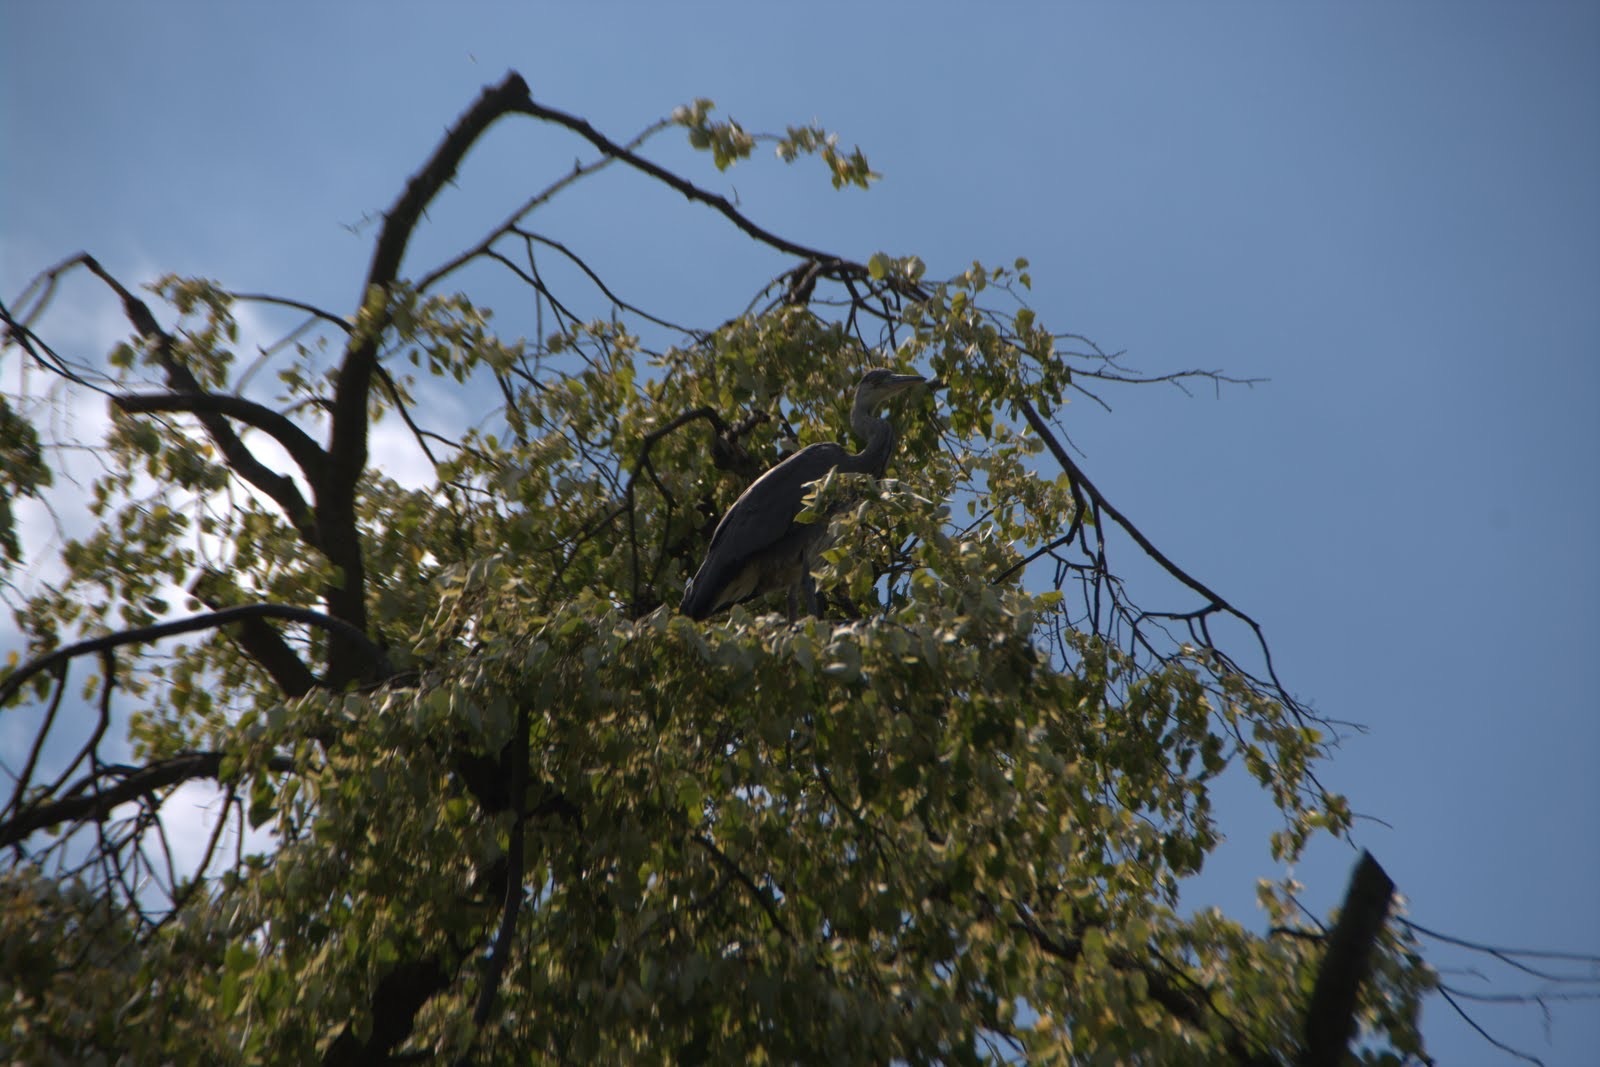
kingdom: Animalia
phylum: Chordata
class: Aves
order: Pelecaniformes
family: Ardeidae
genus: Ardea
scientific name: Ardea cinerea
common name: Grey heron
